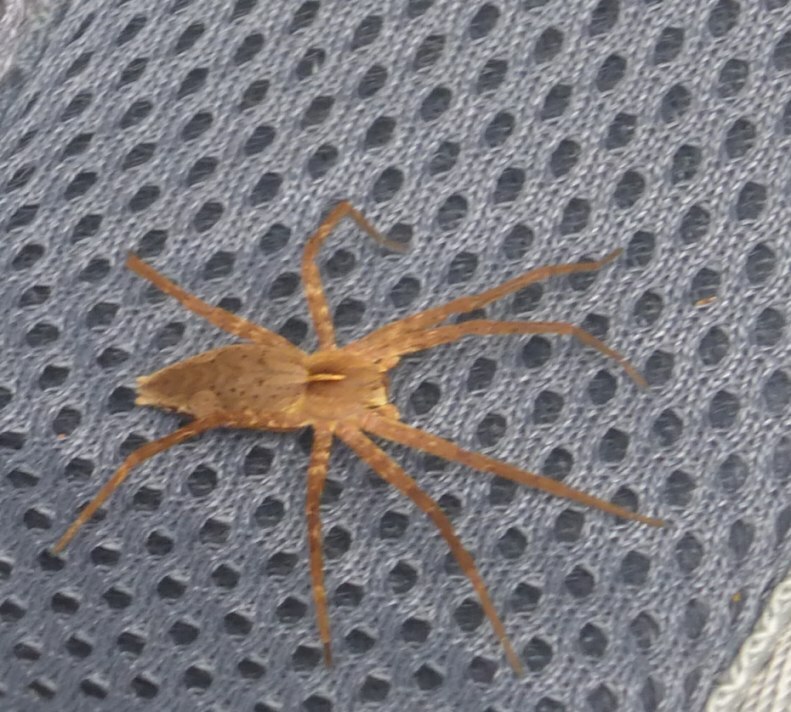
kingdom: Animalia
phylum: Arthropoda
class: Arachnida
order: Araneae
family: Pisauridae
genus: Pisaura
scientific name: Pisaura acoreensis
